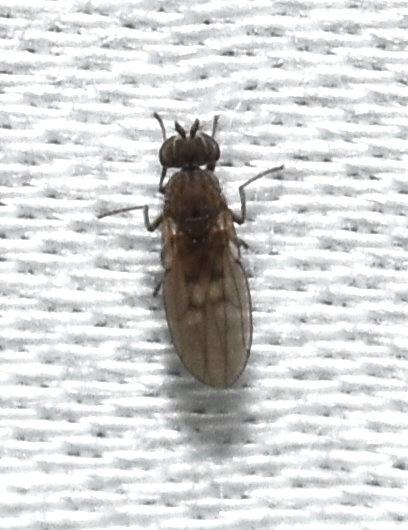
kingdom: Animalia
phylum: Arthropoda
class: Insecta
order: Diptera
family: Ephydridae
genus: Philygria
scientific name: Philygria debilis
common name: Brine fly
